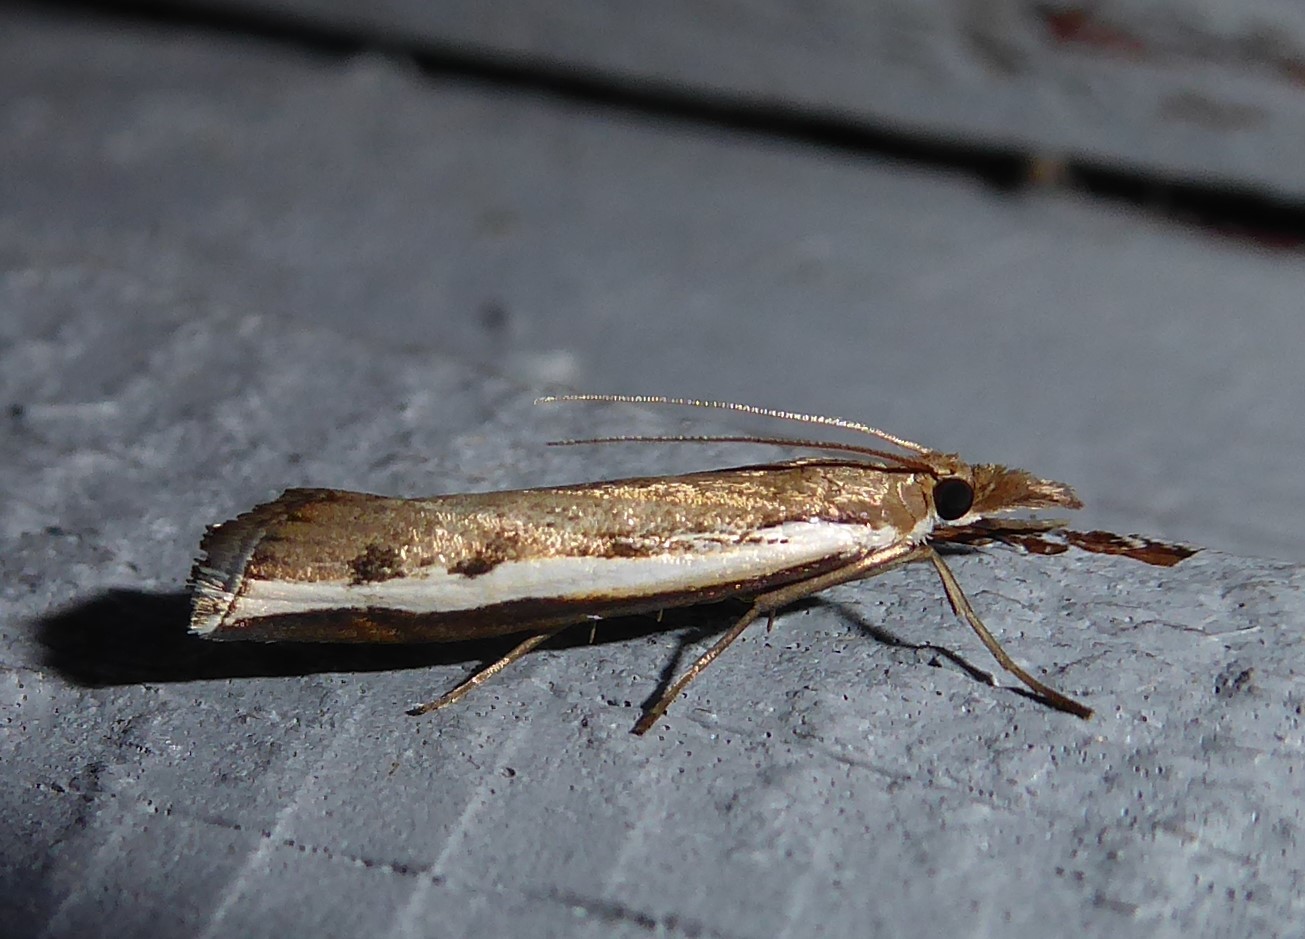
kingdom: Animalia
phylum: Arthropoda
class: Insecta
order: Lepidoptera
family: Crambidae
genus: Orocrambus
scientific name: Orocrambus flexuosellus
